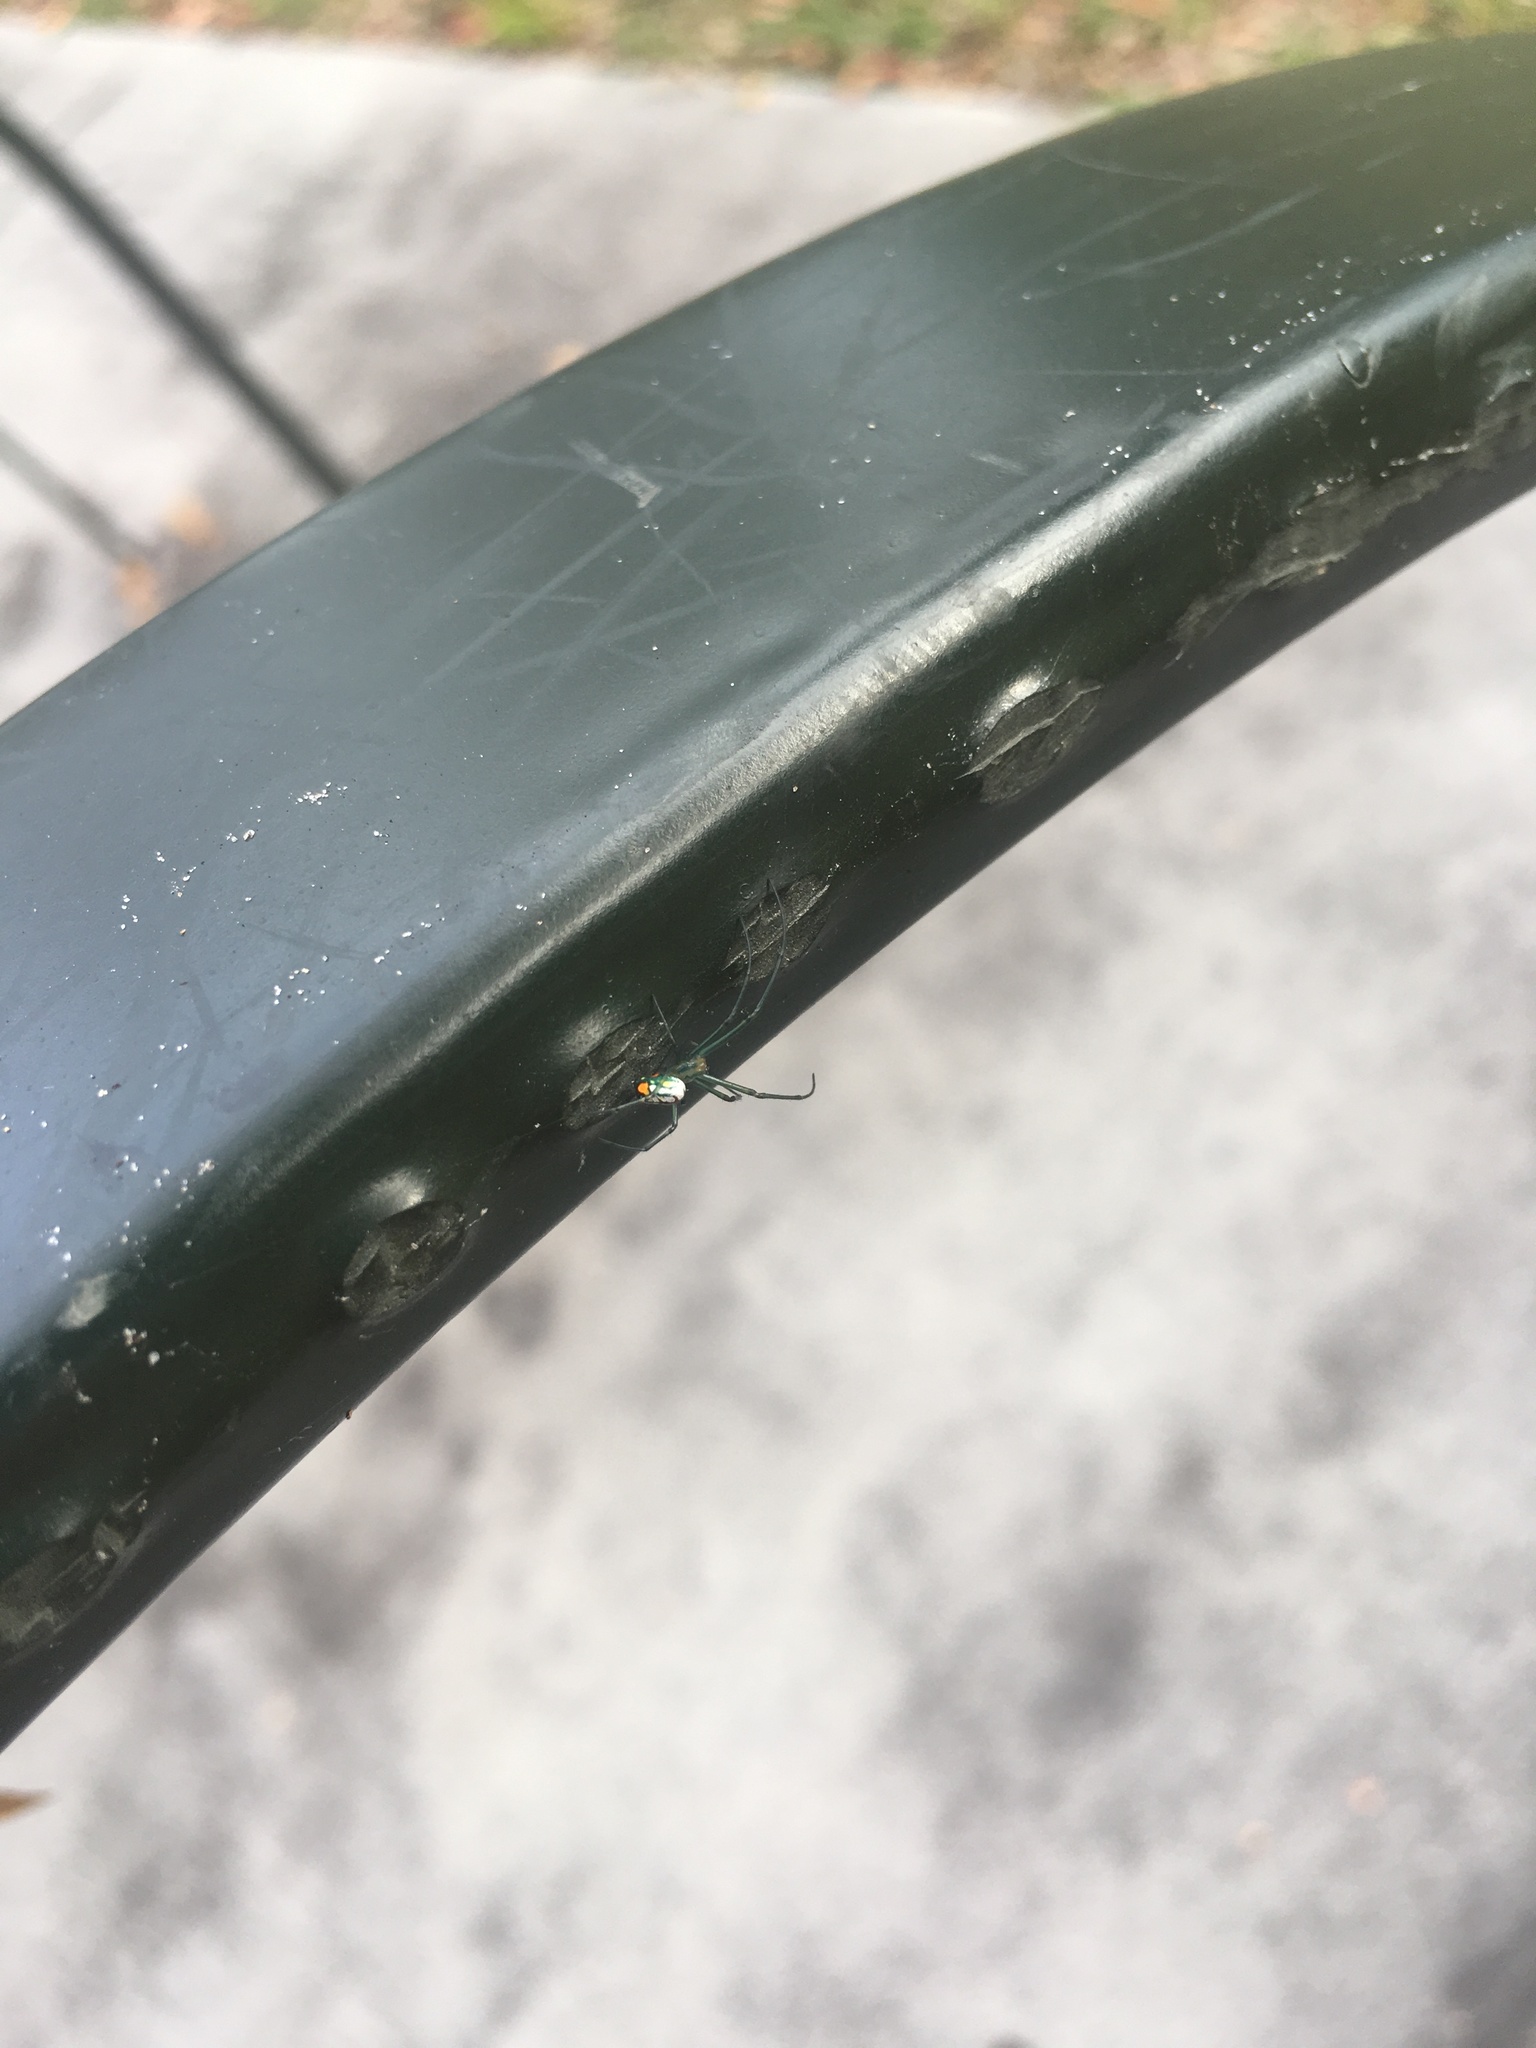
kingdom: Animalia
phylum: Arthropoda
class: Arachnida
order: Araneae
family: Tetragnathidae
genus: Leucauge
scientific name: Leucauge argyrobapta
